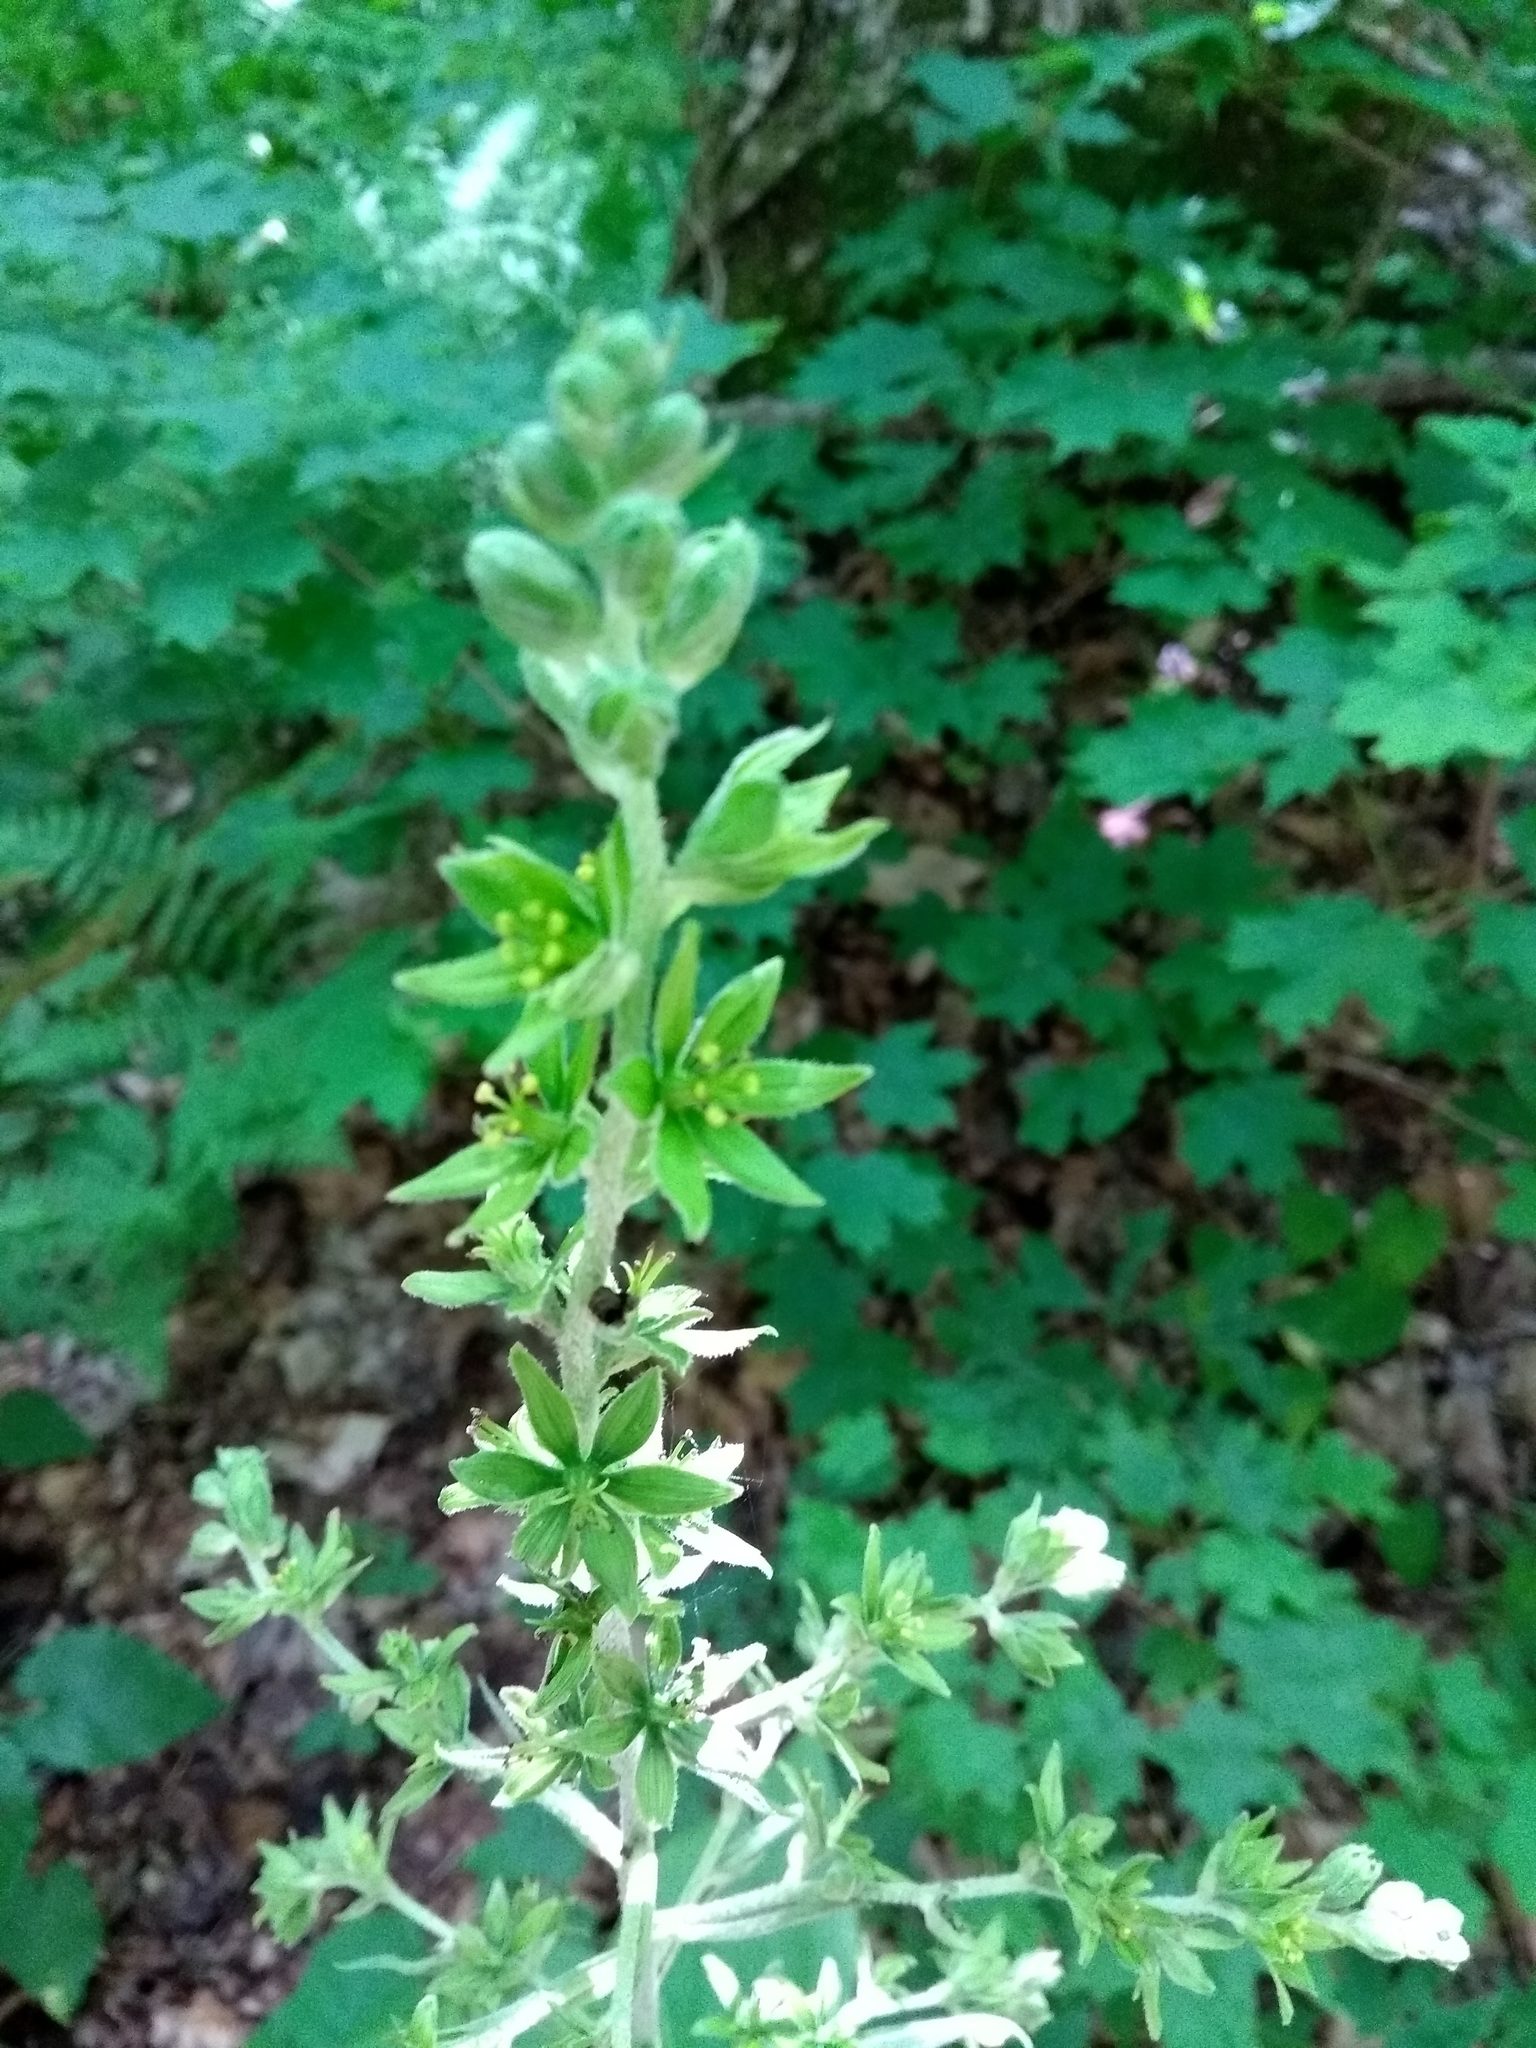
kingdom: Plantae
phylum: Tracheophyta
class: Liliopsida
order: Liliales
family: Melanthiaceae
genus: Veratrum
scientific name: Veratrum viride
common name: American false hellebore
